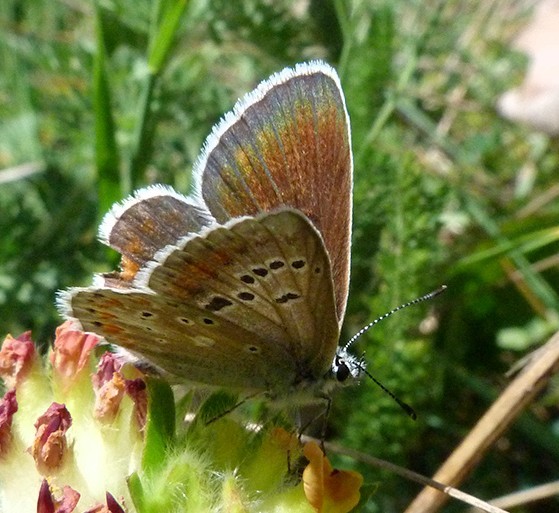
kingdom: Animalia
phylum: Arthropoda
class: Insecta
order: Lepidoptera
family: Lycaenidae
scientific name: Lycaenidae
